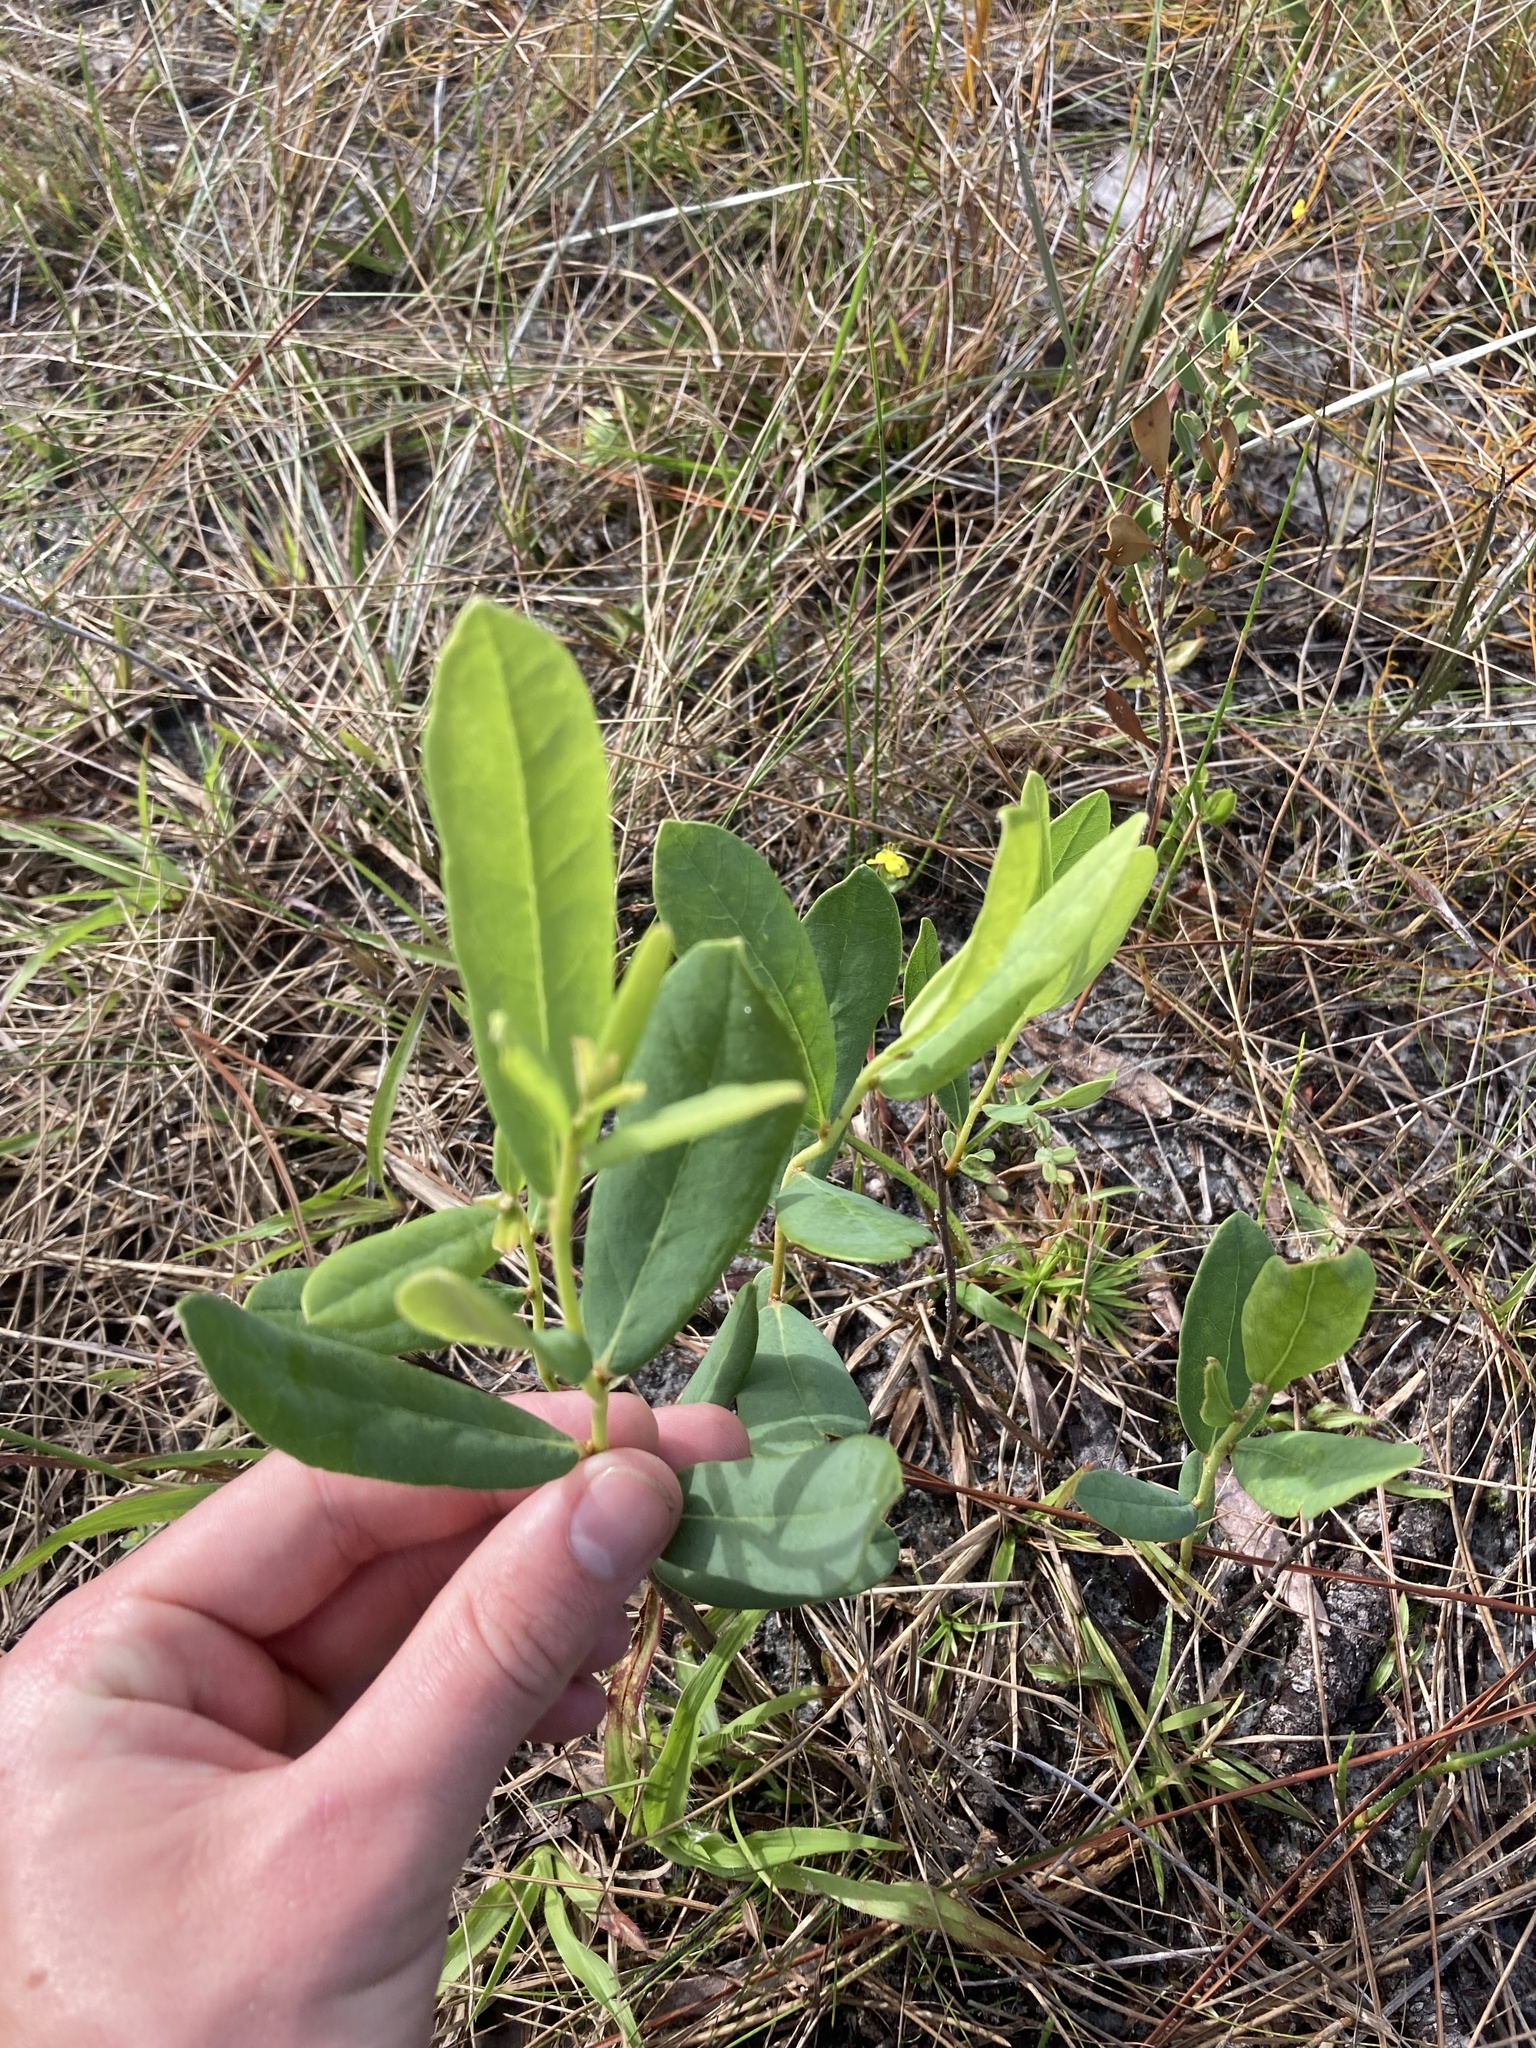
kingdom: Plantae
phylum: Tracheophyta
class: Magnoliopsida
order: Magnoliales
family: Annonaceae
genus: Asimina
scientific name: Asimina reticulata
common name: Flag pawpaw
